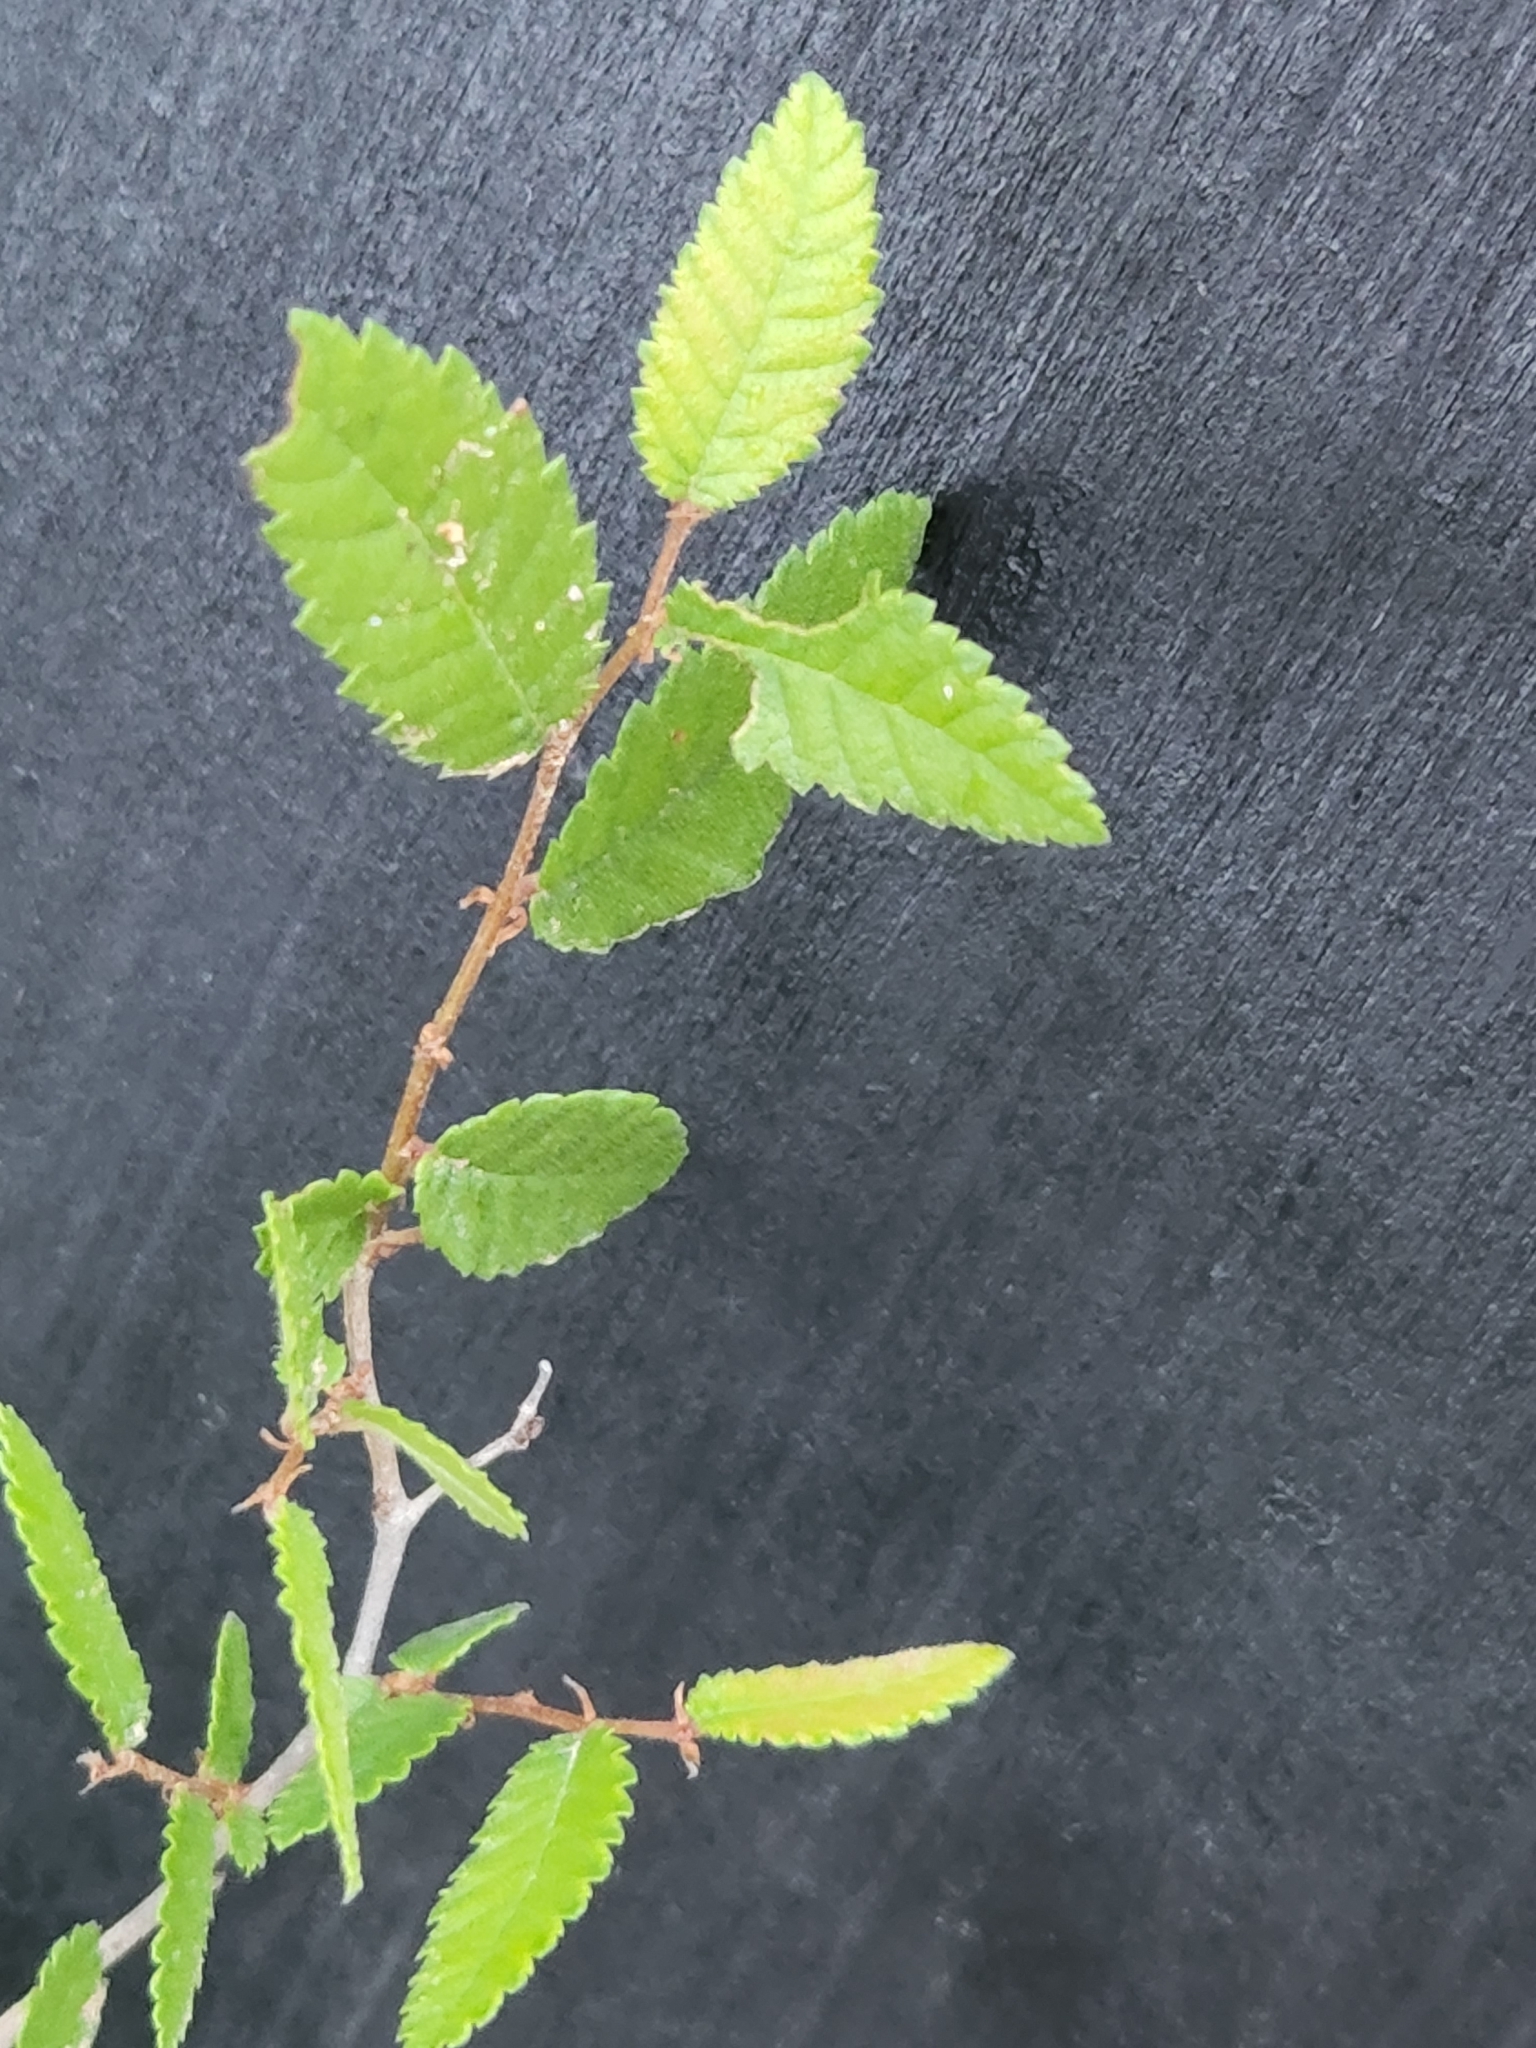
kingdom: Plantae
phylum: Tracheophyta
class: Magnoliopsida
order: Rosales
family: Ulmaceae
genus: Ulmus
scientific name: Ulmus crassifolia
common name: Basket elm
